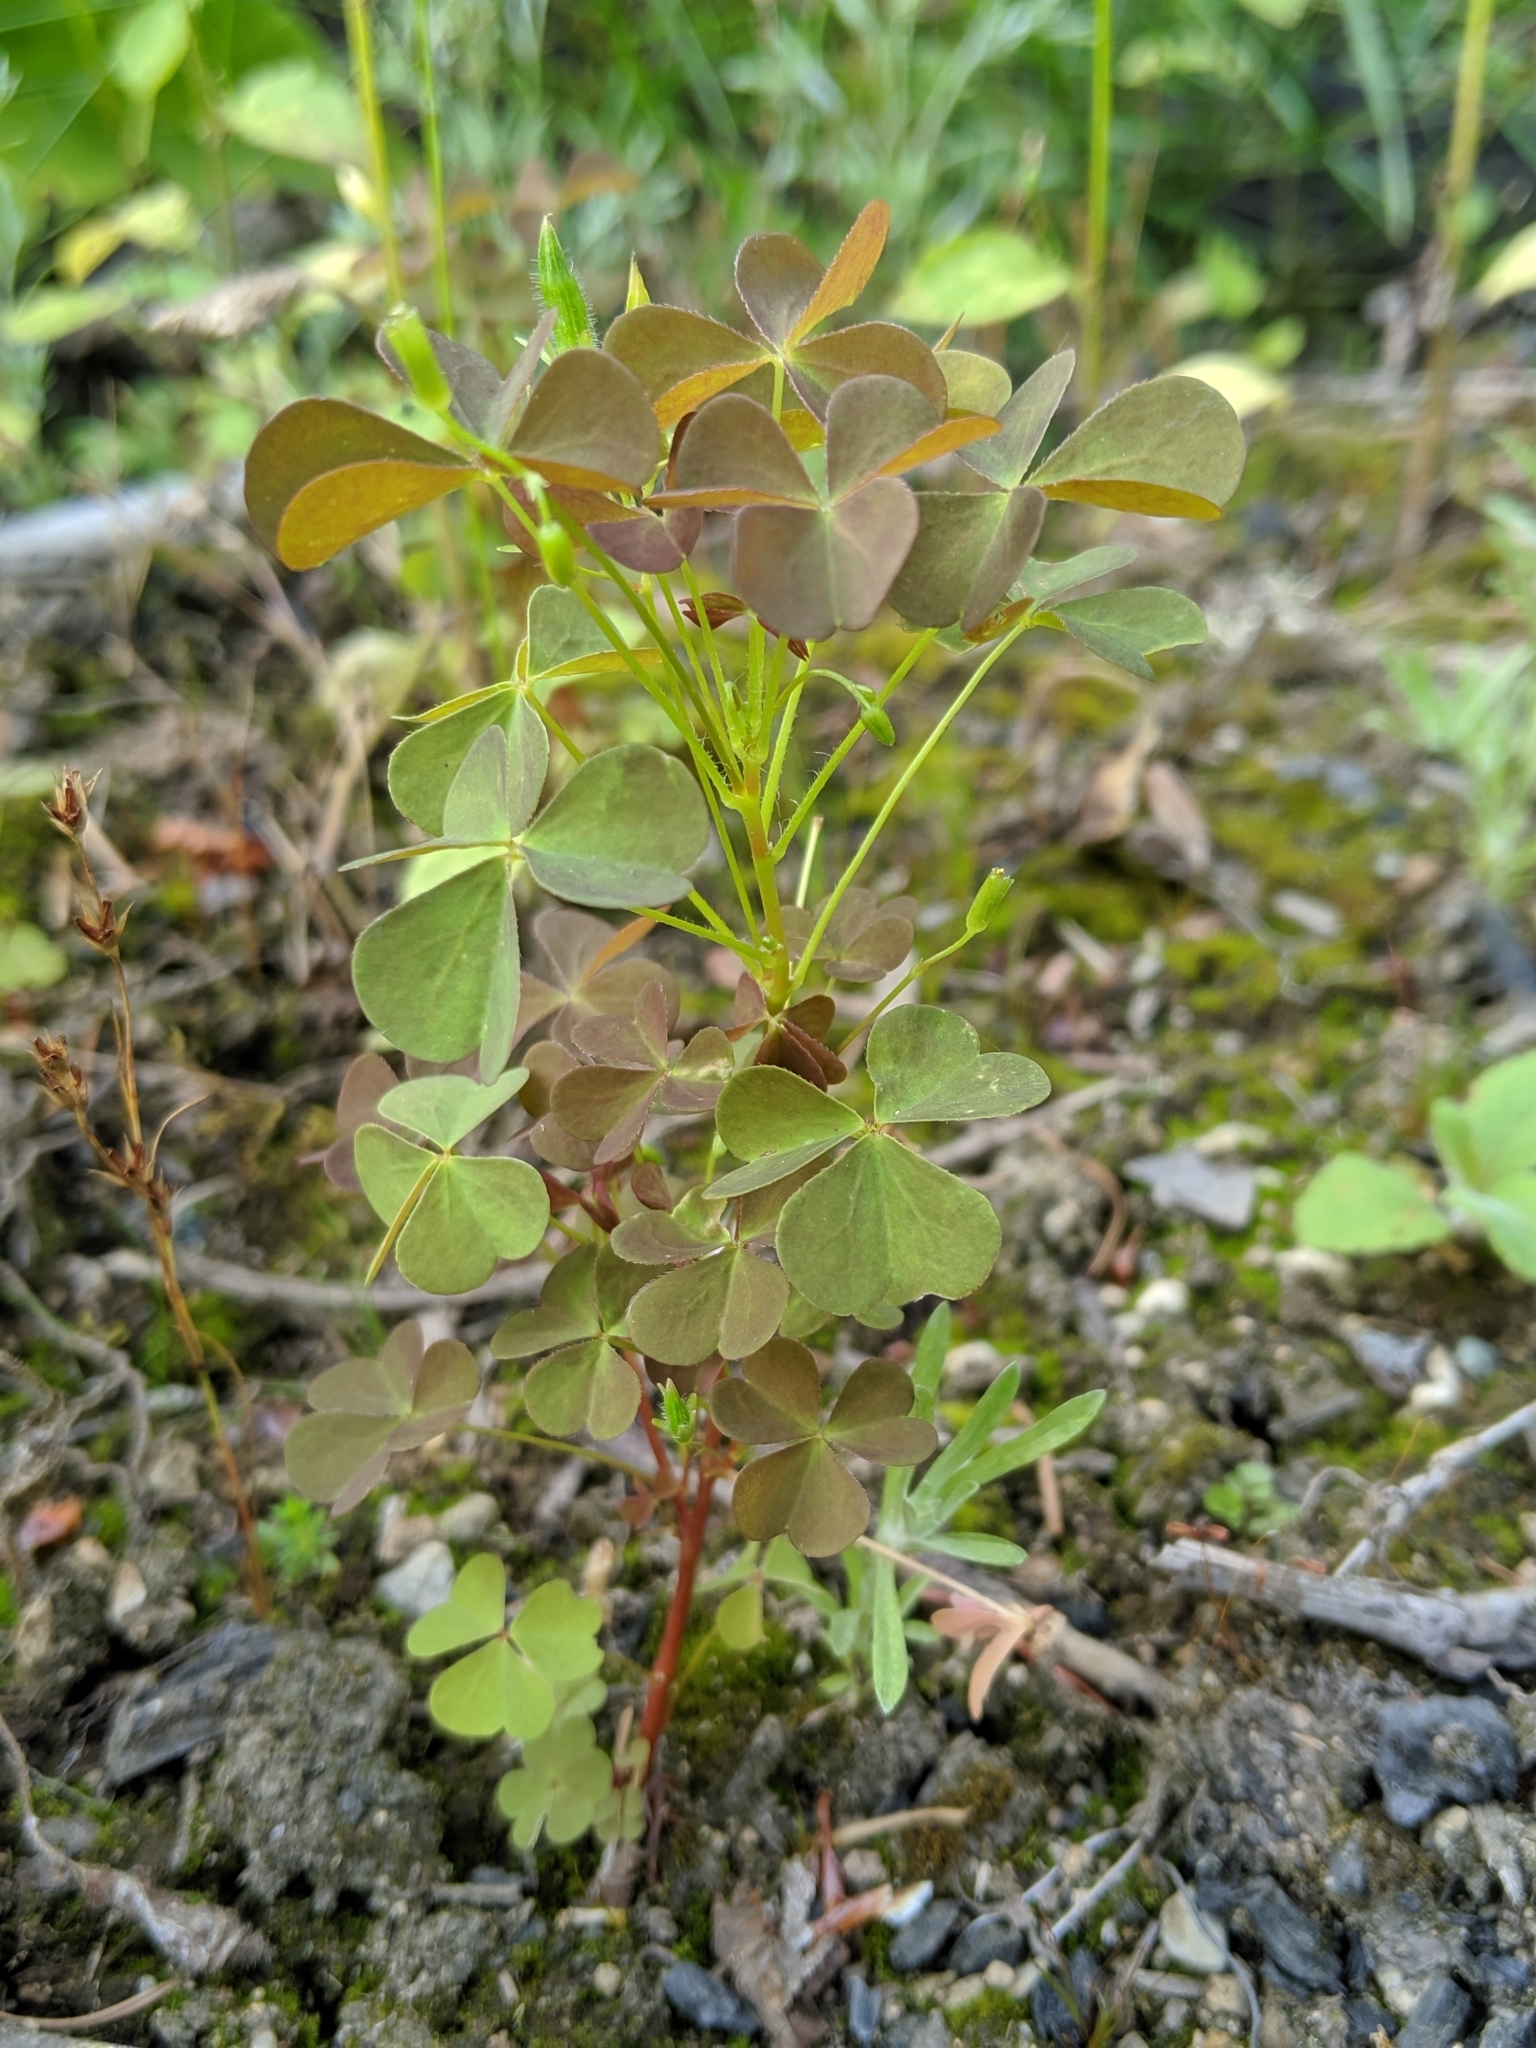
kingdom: Plantae
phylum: Tracheophyta
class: Magnoliopsida
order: Oxalidales
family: Oxalidaceae
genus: Oxalis
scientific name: Oxalis stricta
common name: Upright yellow-sorrel
